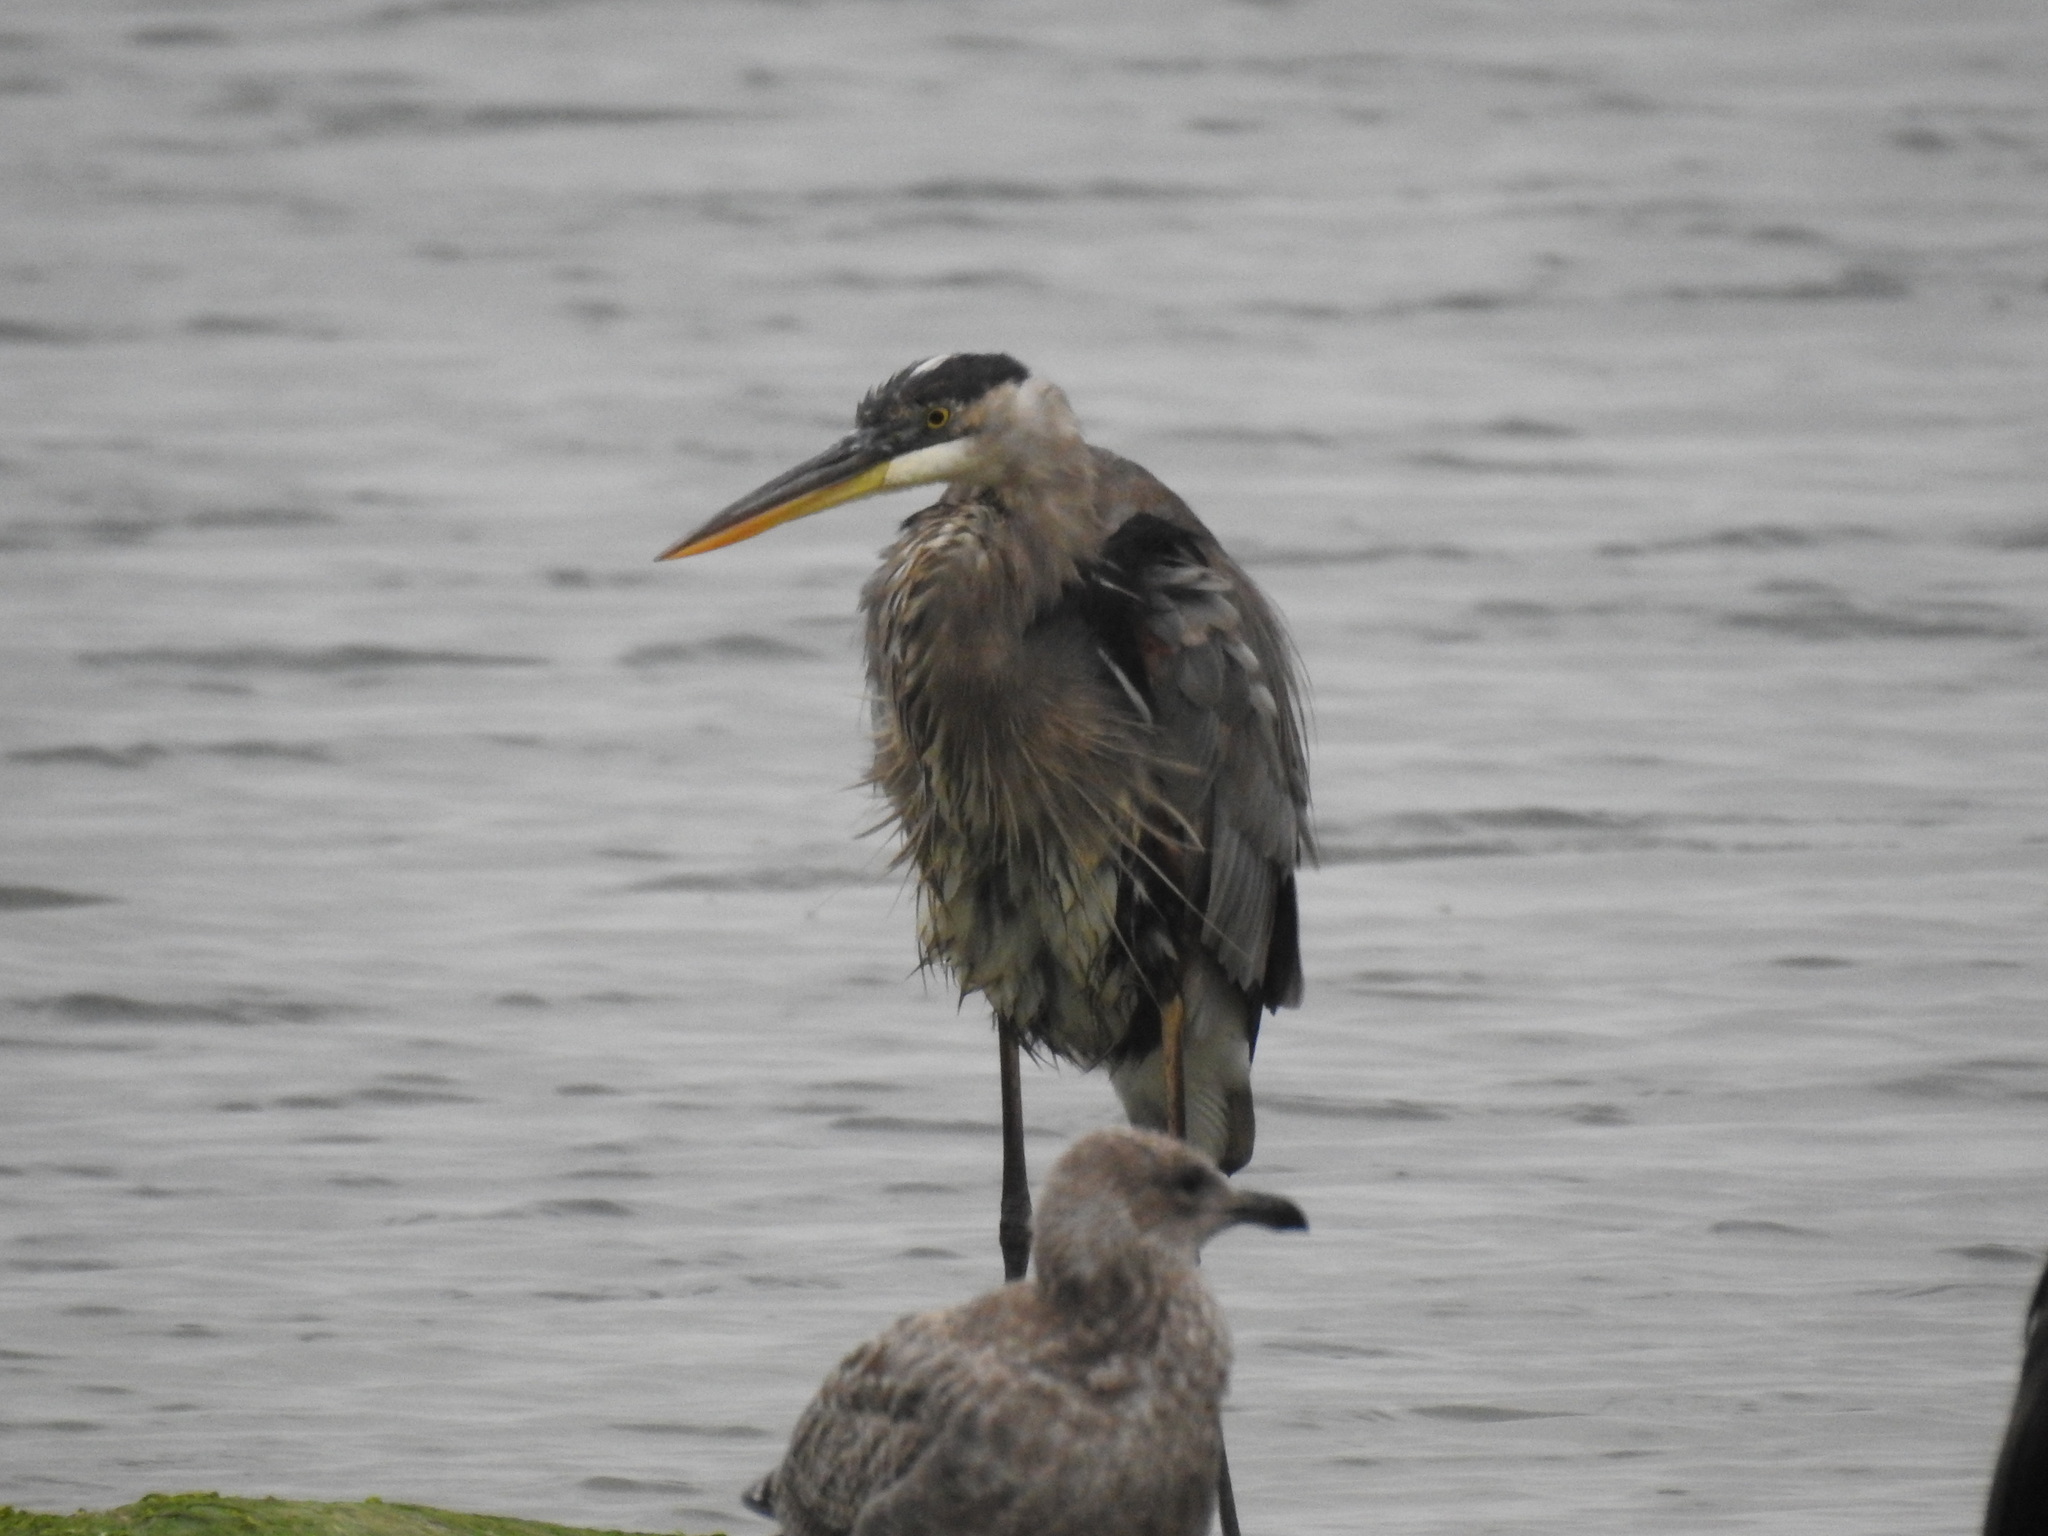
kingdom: Animalia
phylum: Chordata
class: Aves
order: Pelecaniformes
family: Ardeidae
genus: Ardea
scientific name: Ardea herodias
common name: Great blue heron
